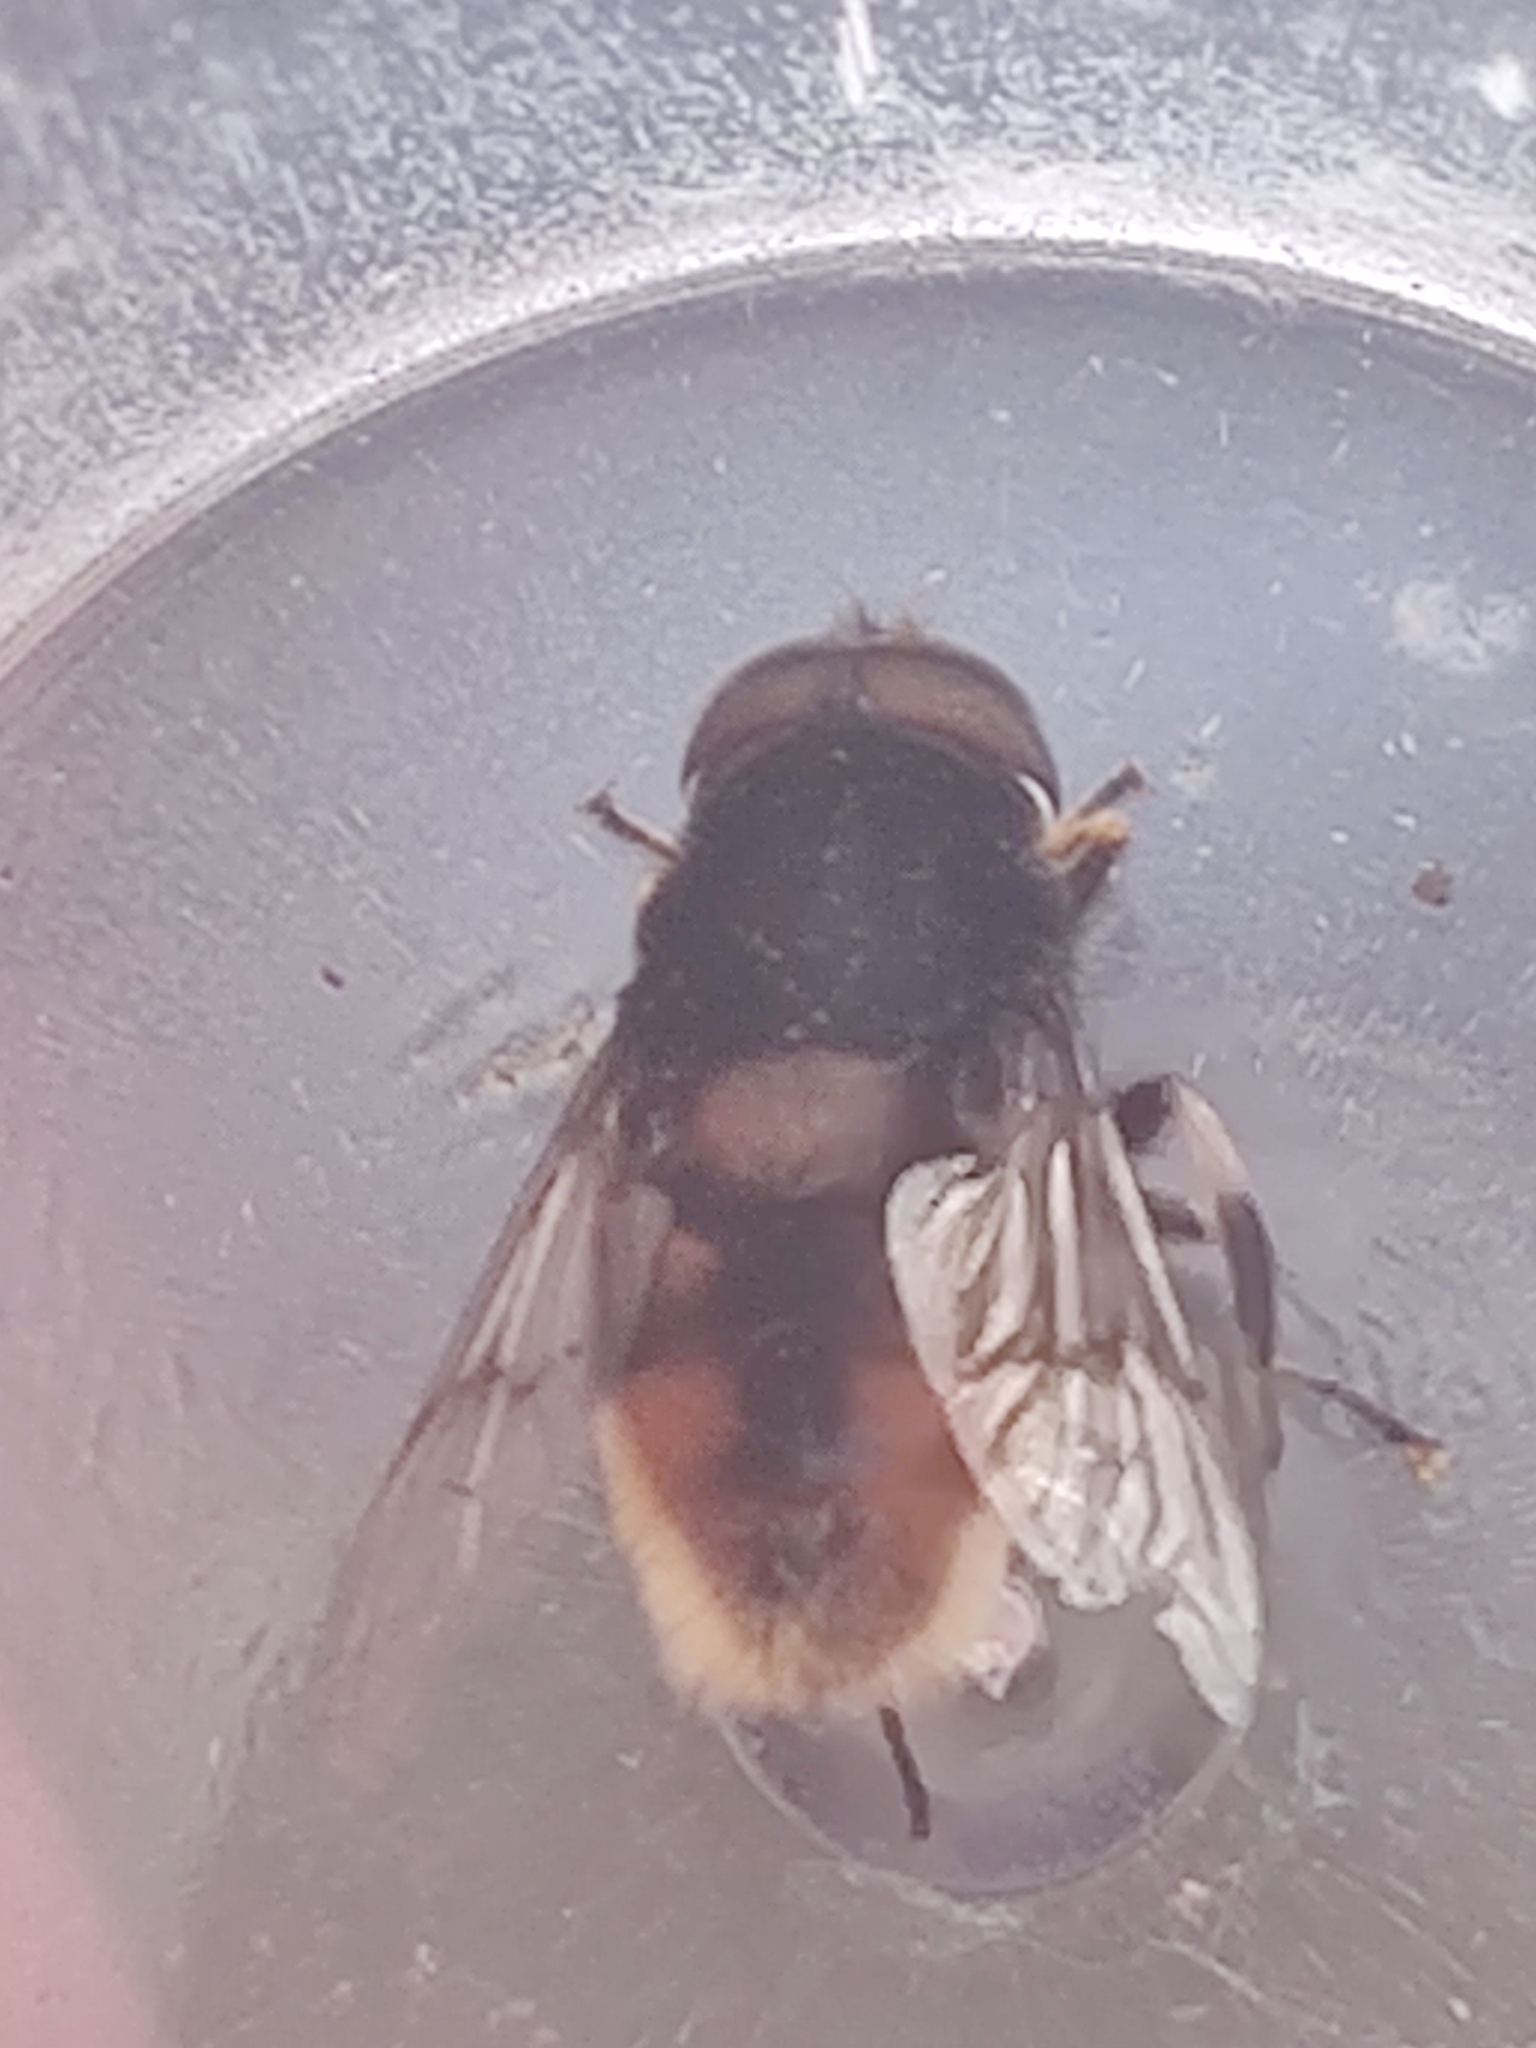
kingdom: Animalia
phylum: Arthropoda
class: Insecta
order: Diptera
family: Syrphidae
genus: Eristalis
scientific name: Eristalis intricaria
